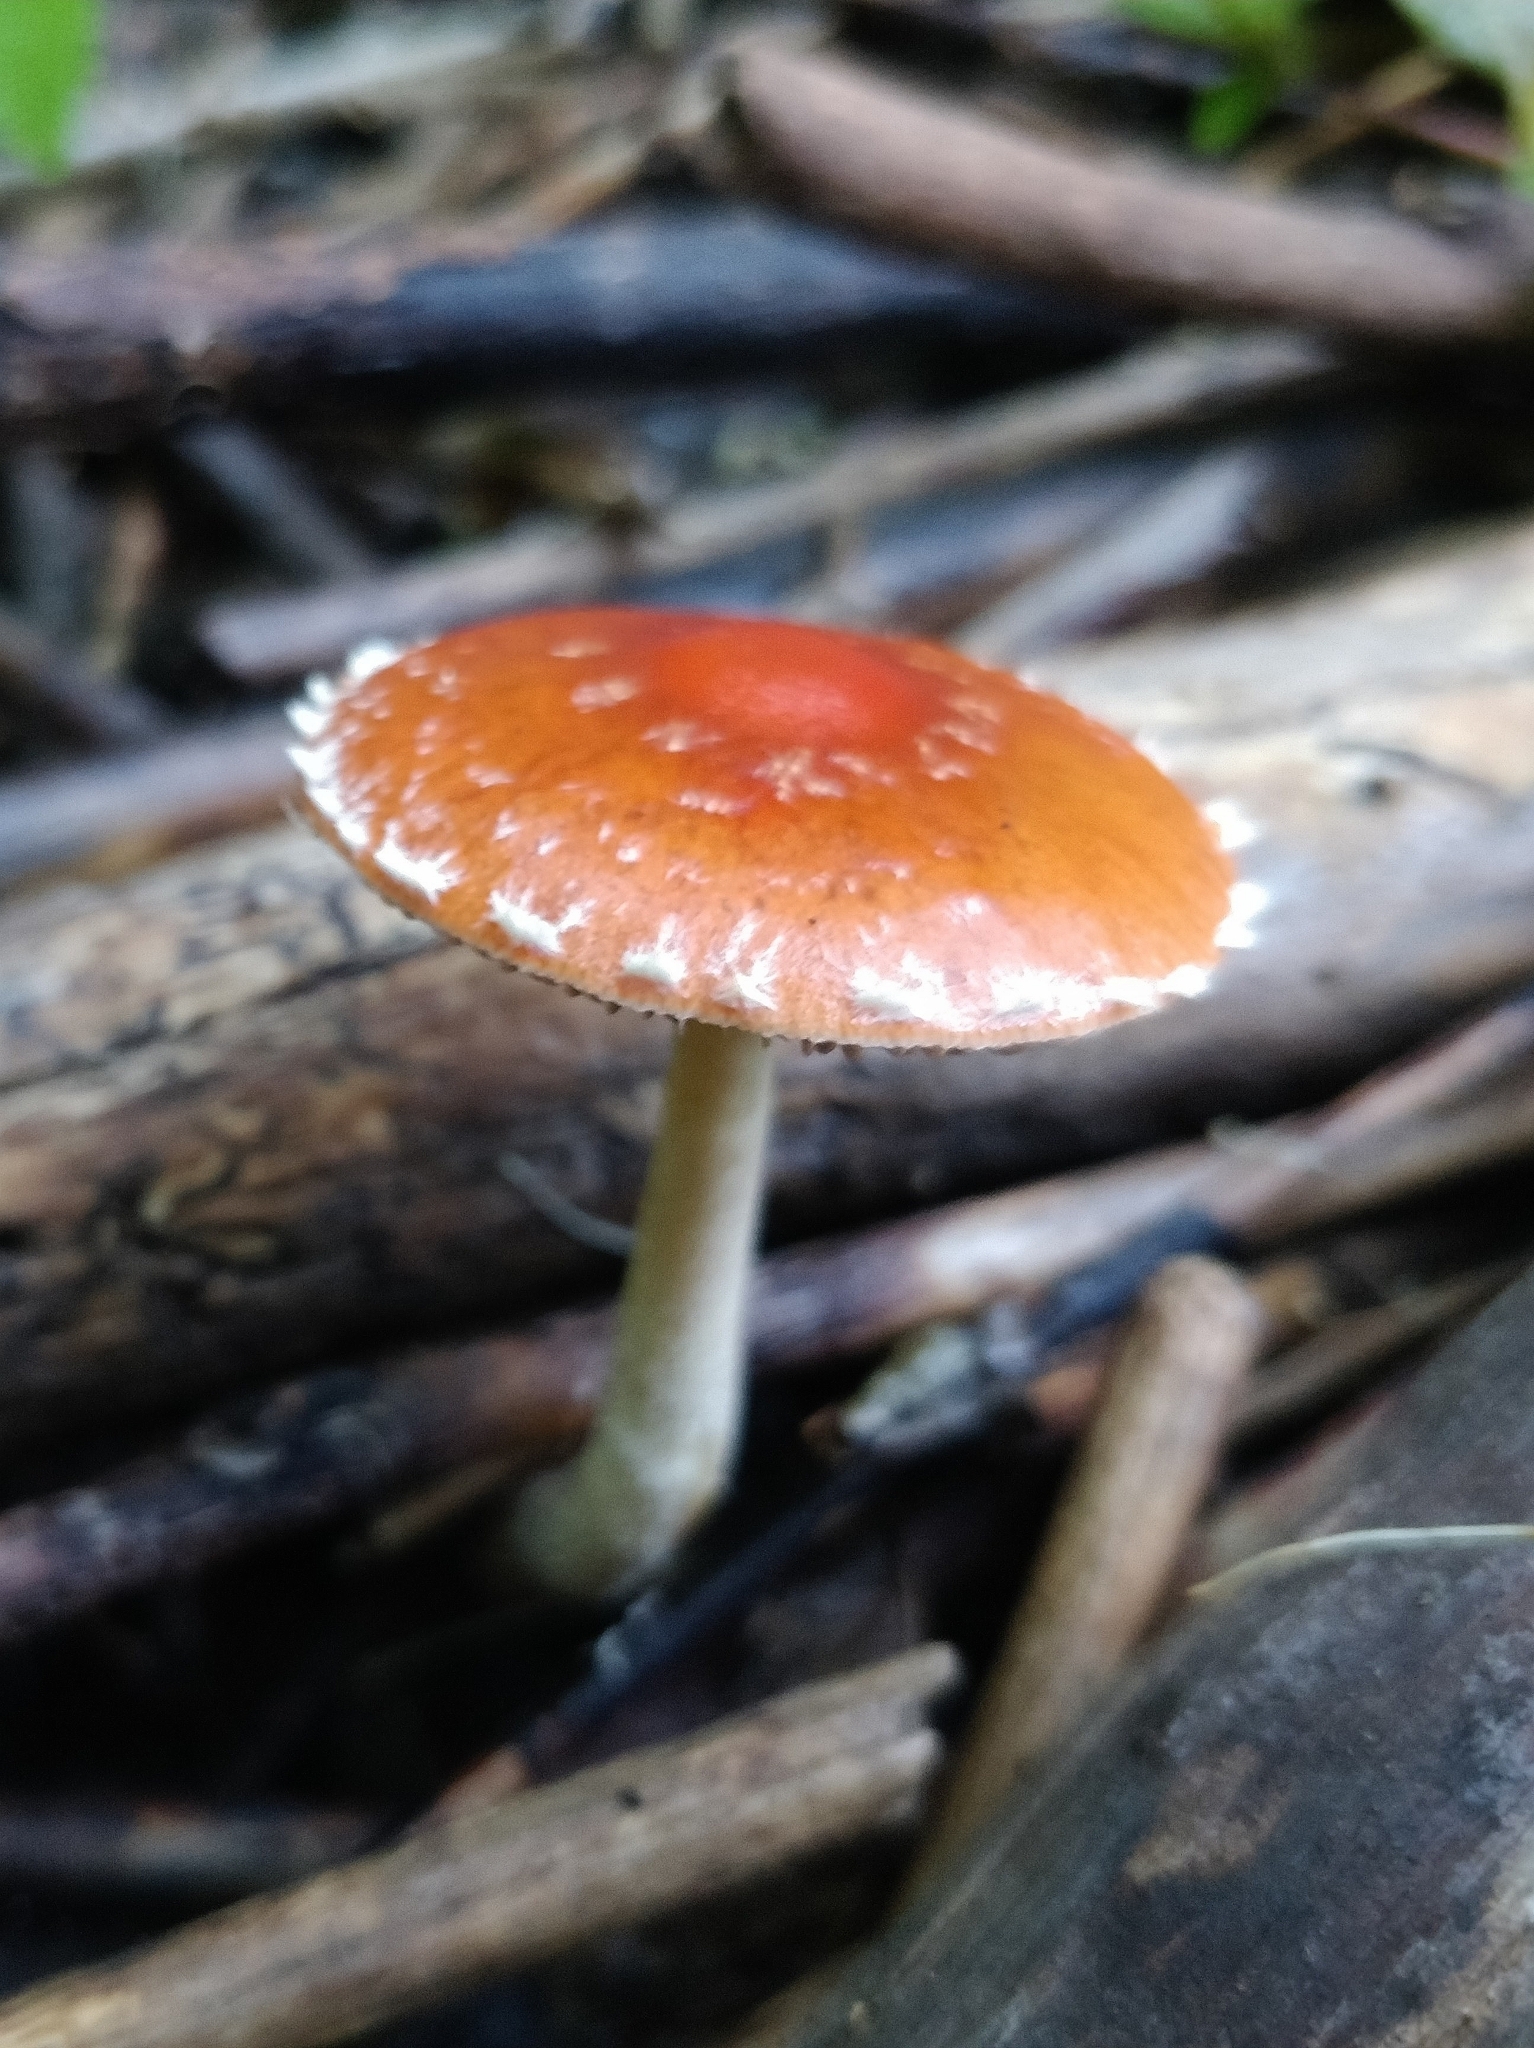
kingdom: Fungi
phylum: Basidiomycota
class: Agaricomycetes
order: Agaricales
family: Strophariaceae
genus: Leratiomyces
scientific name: Leratiomyces ceres
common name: Redlead roundhead
